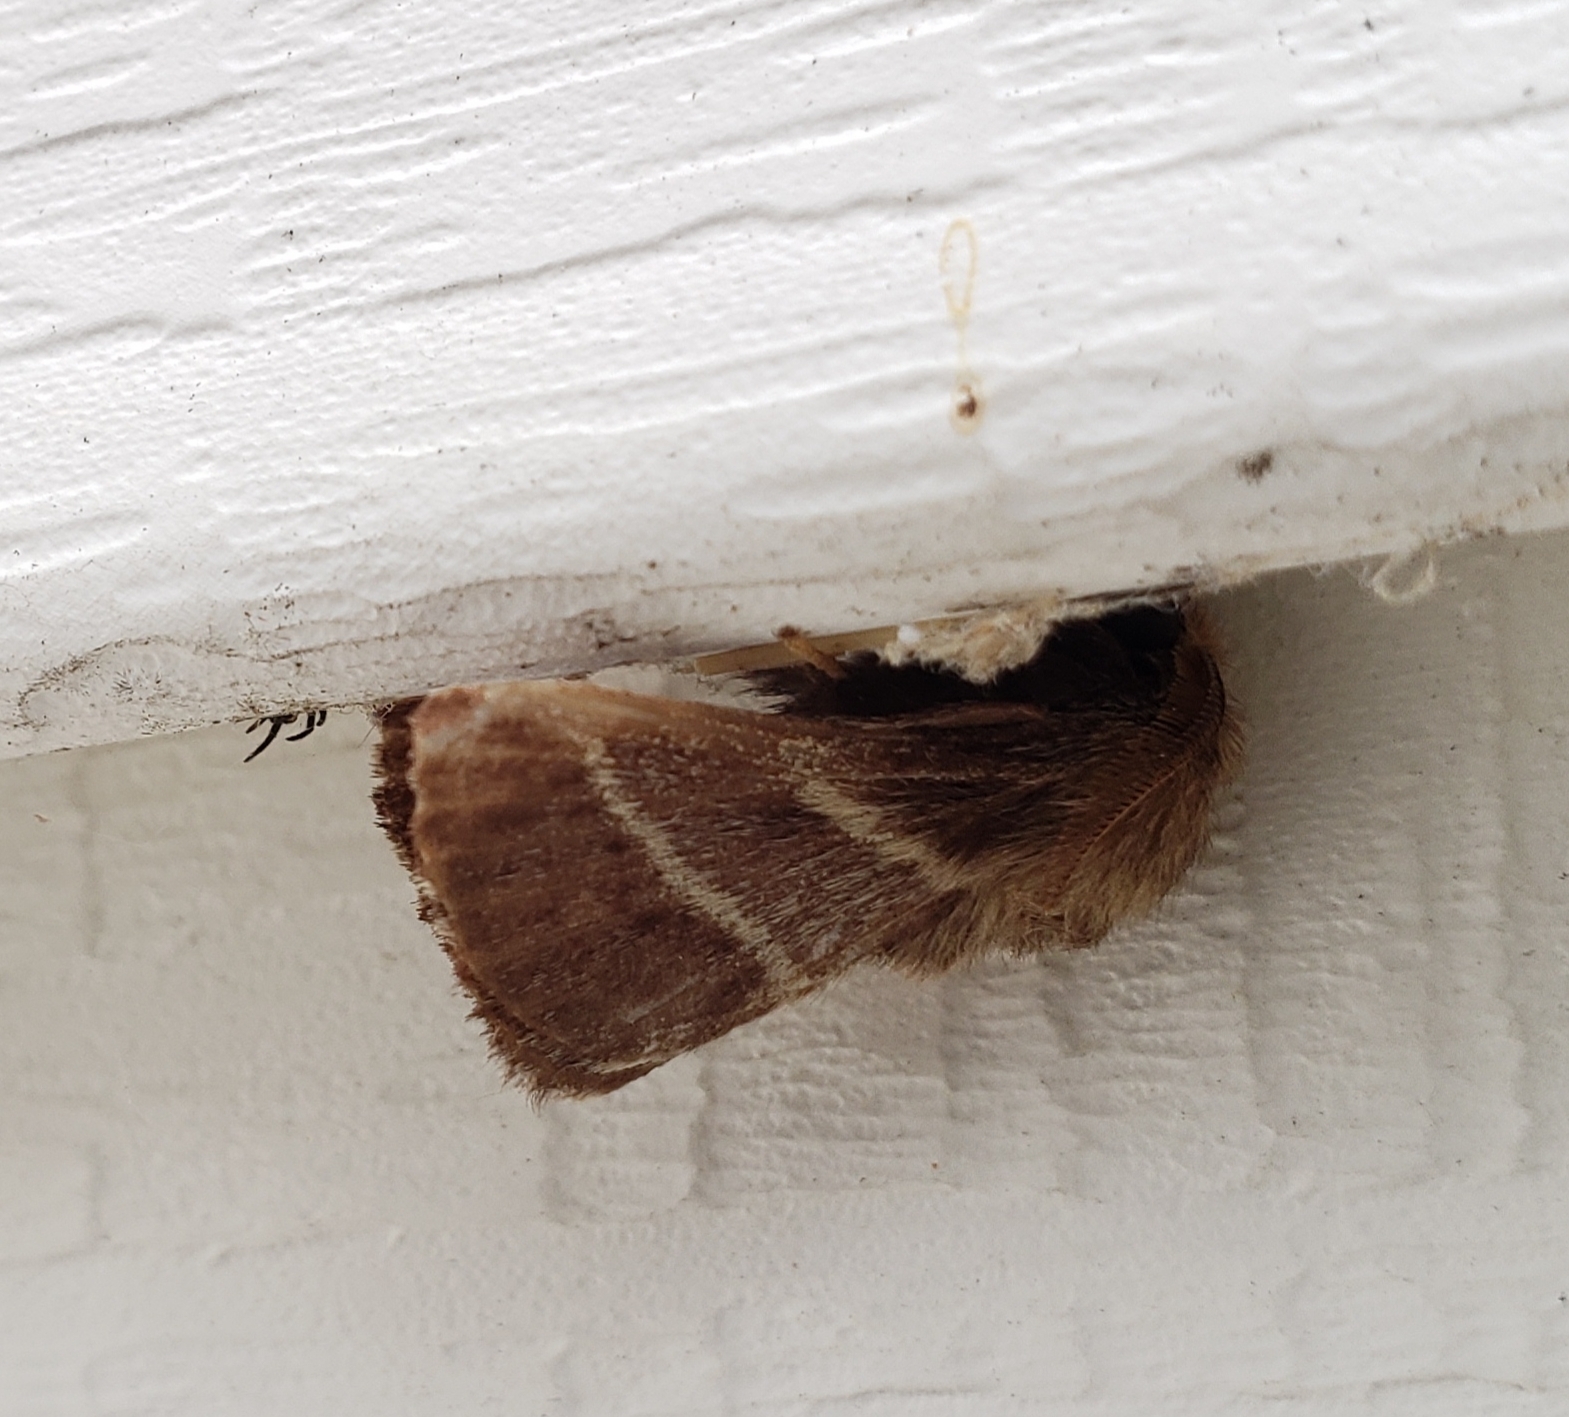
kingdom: Animalia
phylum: Arthropoda
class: Insecta
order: Lepidoptera
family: Lasiocampidae
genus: Malacosoma
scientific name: Malacosoma americana
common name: Eastern tent caterpillar moth
